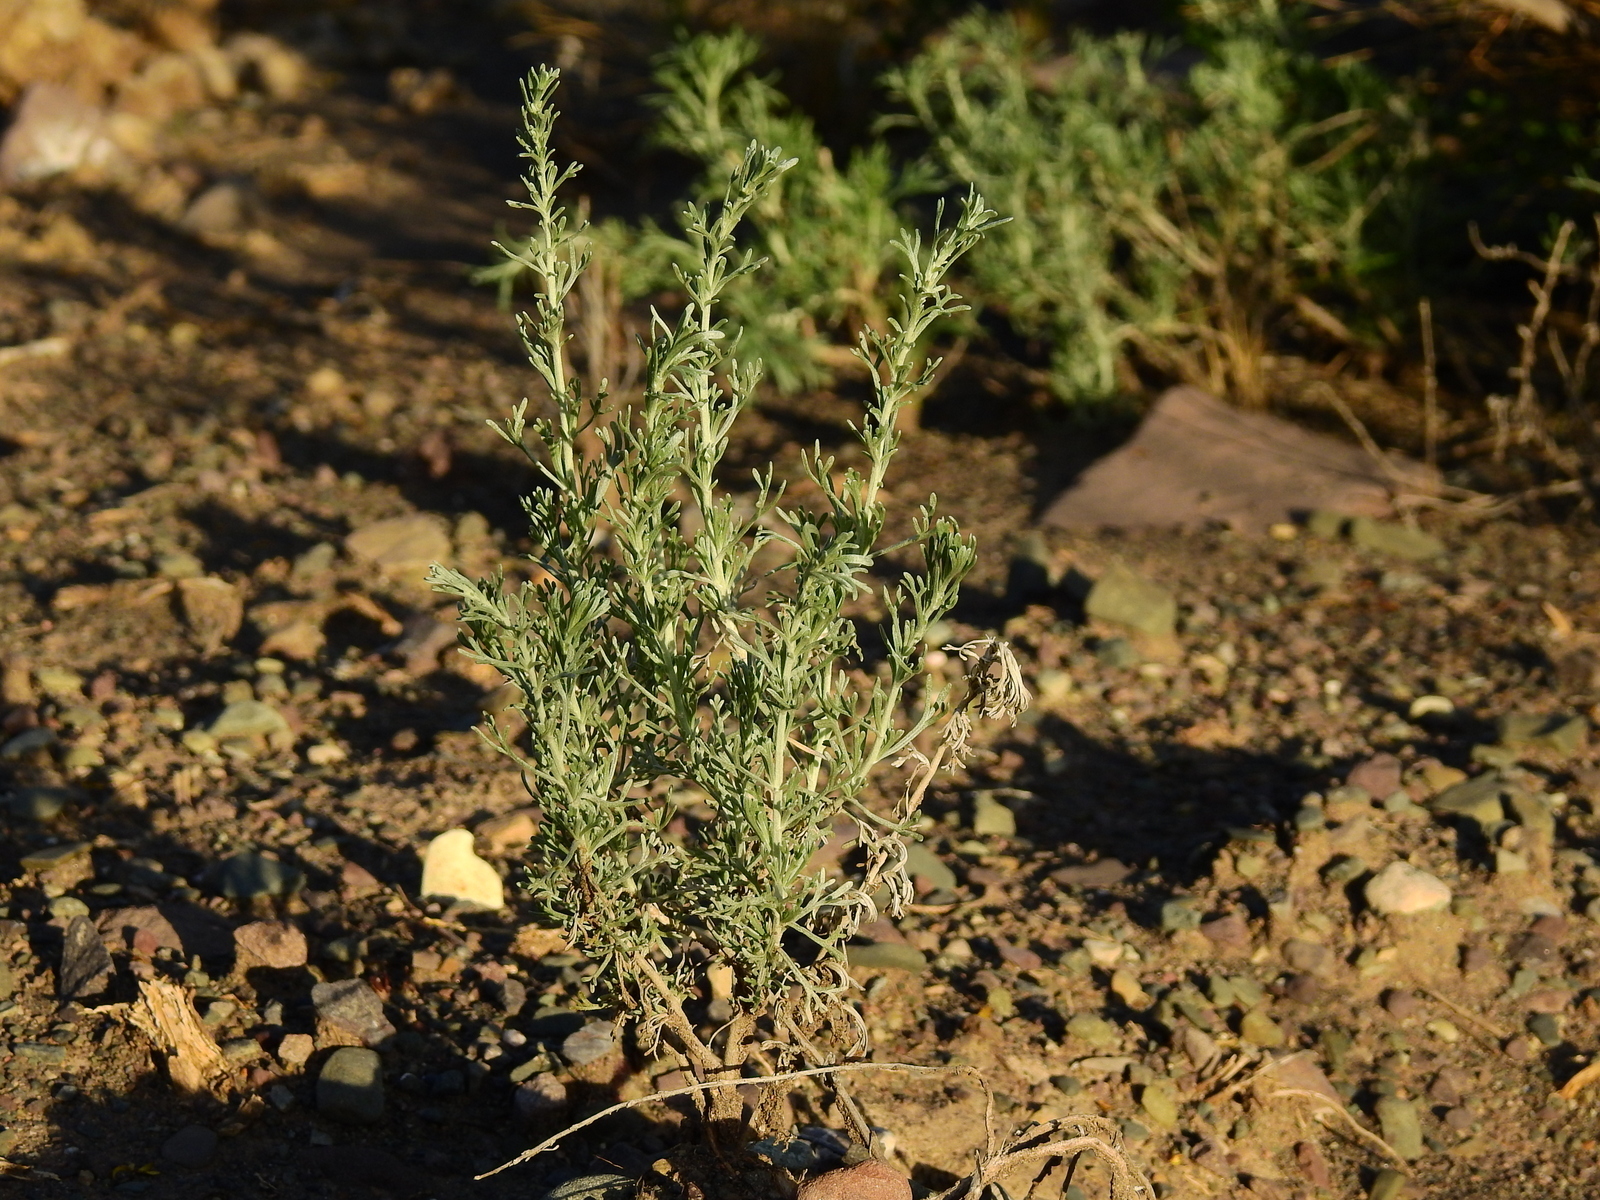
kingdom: Plantae
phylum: Tracheophyta
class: Magnoliopsida
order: Asterales
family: Asteraceae
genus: Artemisia
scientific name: Artemisia mendozana
